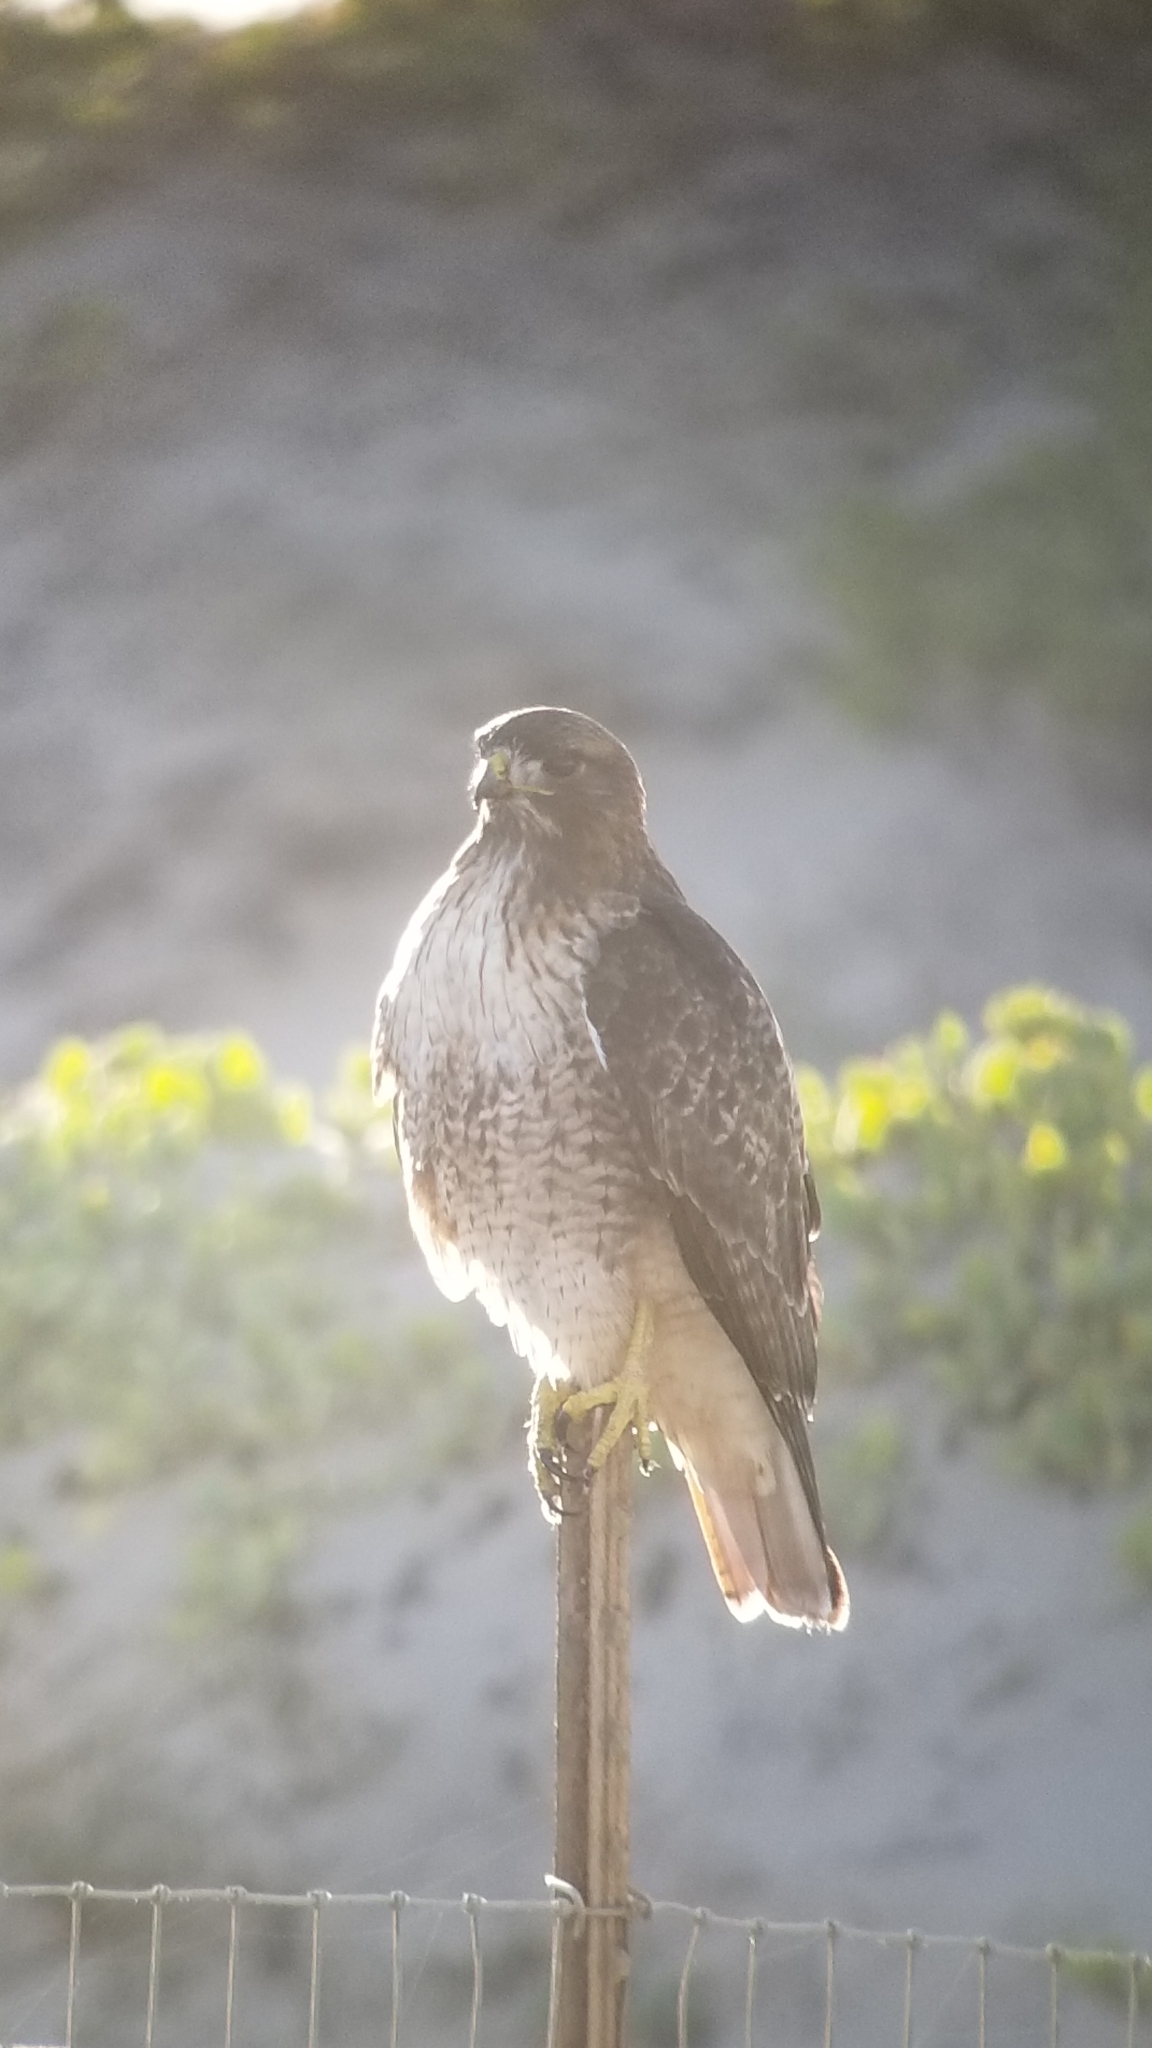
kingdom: Animalia
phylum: Chordata
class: Aves
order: Accipitriformes
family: Accipitridae
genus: Buteo
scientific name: Buteo jamaicensis
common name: Red-tailed hawk
